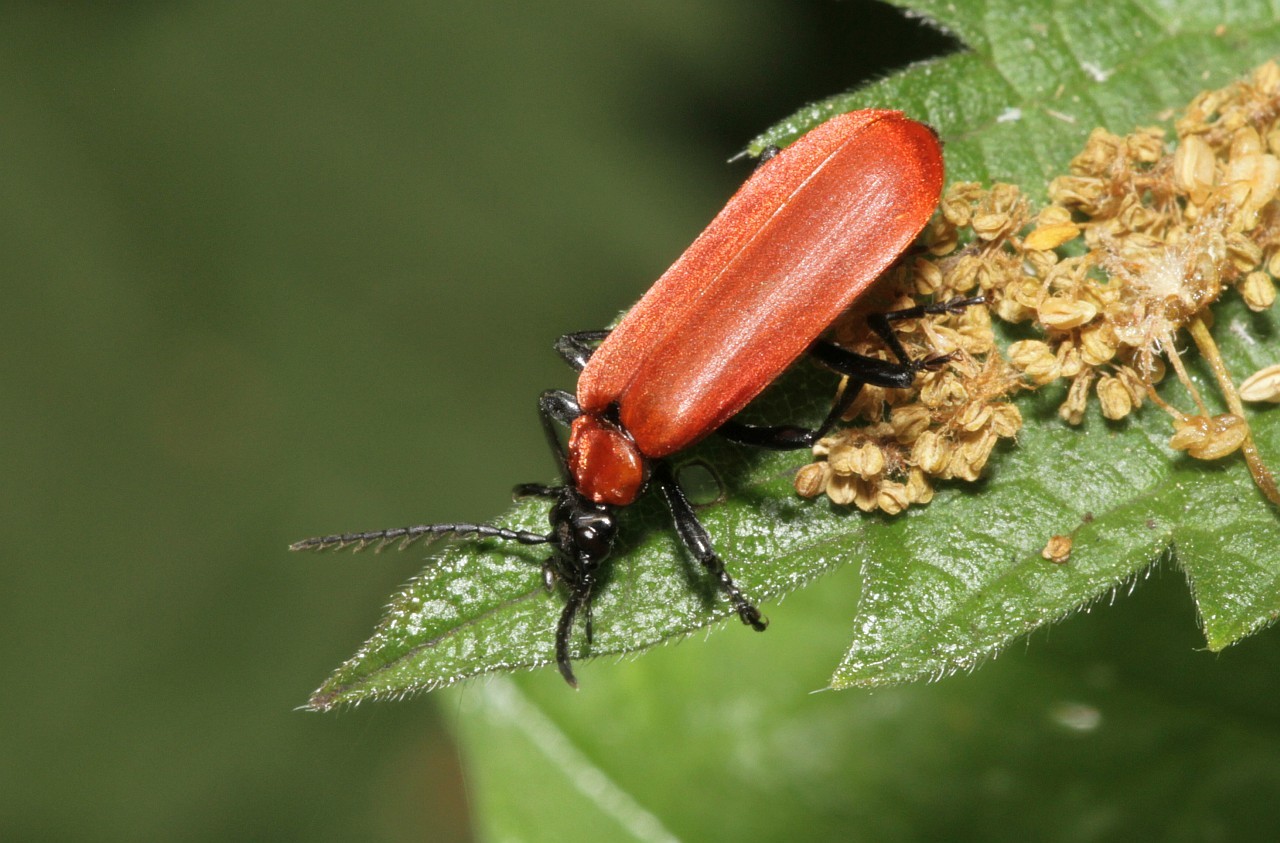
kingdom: Animalia
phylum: Arthropoda
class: Insecta
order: Coleoptera
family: Pyrochroidae
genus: Pyrochroa
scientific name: Pyrochroa coccinea
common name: Black-headed cardinal beetle
